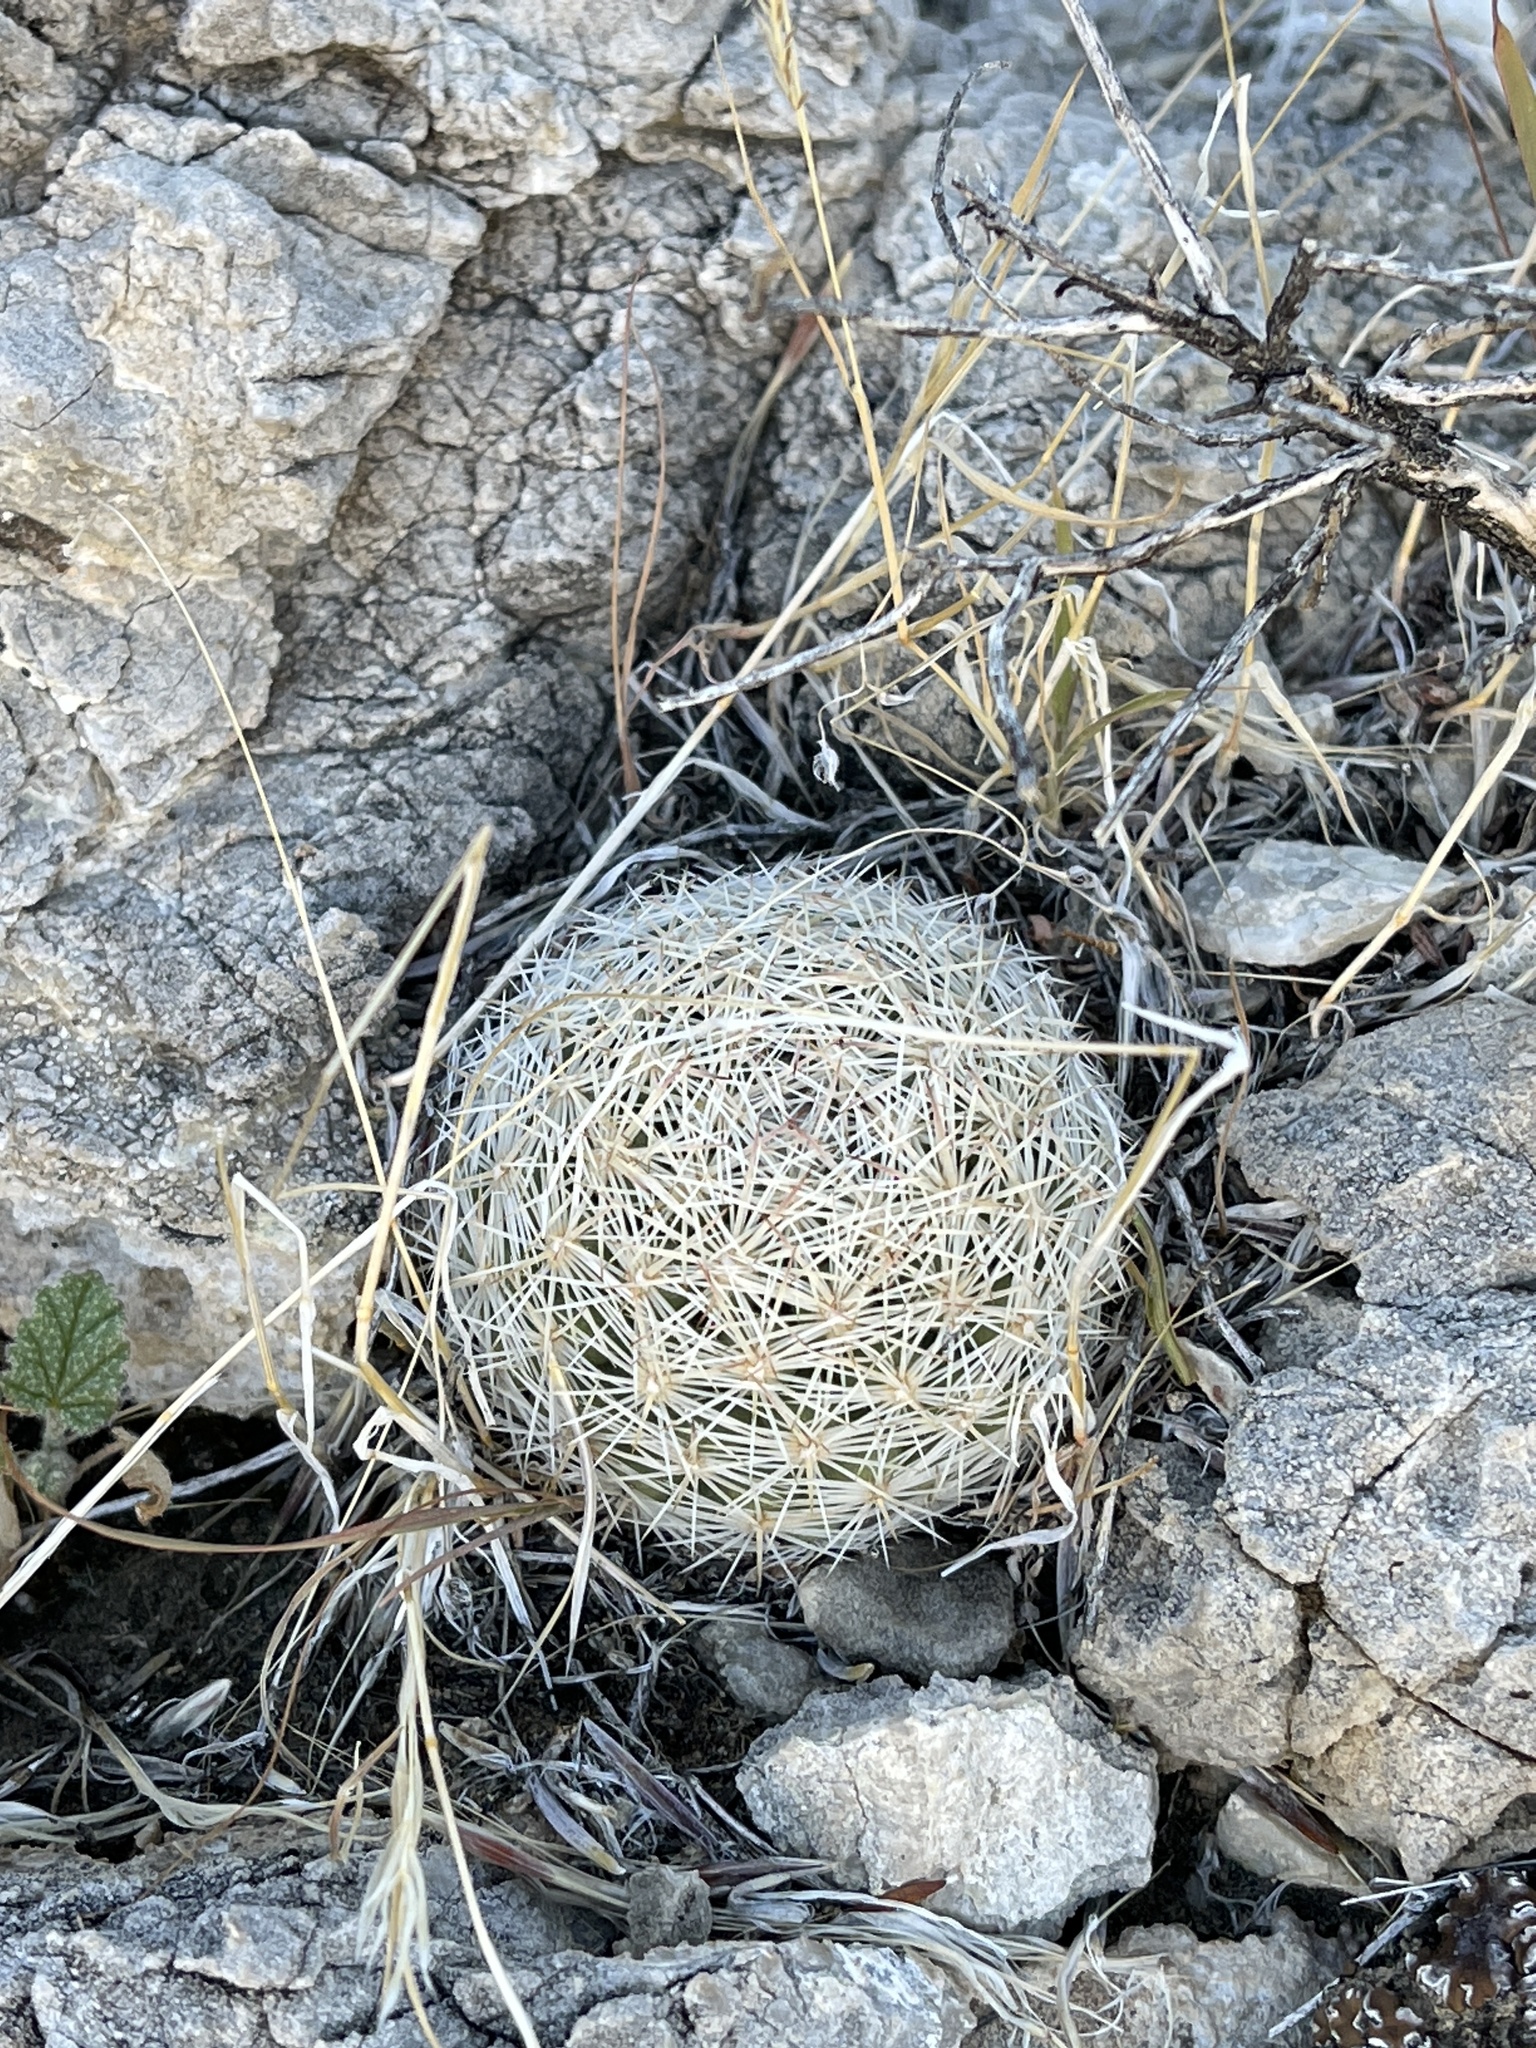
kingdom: Plantae
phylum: Tracheophyta
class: Magnoliopsida
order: Caryophyllales
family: Cactaceae
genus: Pelecyphora
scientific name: Pelecyphora dasyacantha
